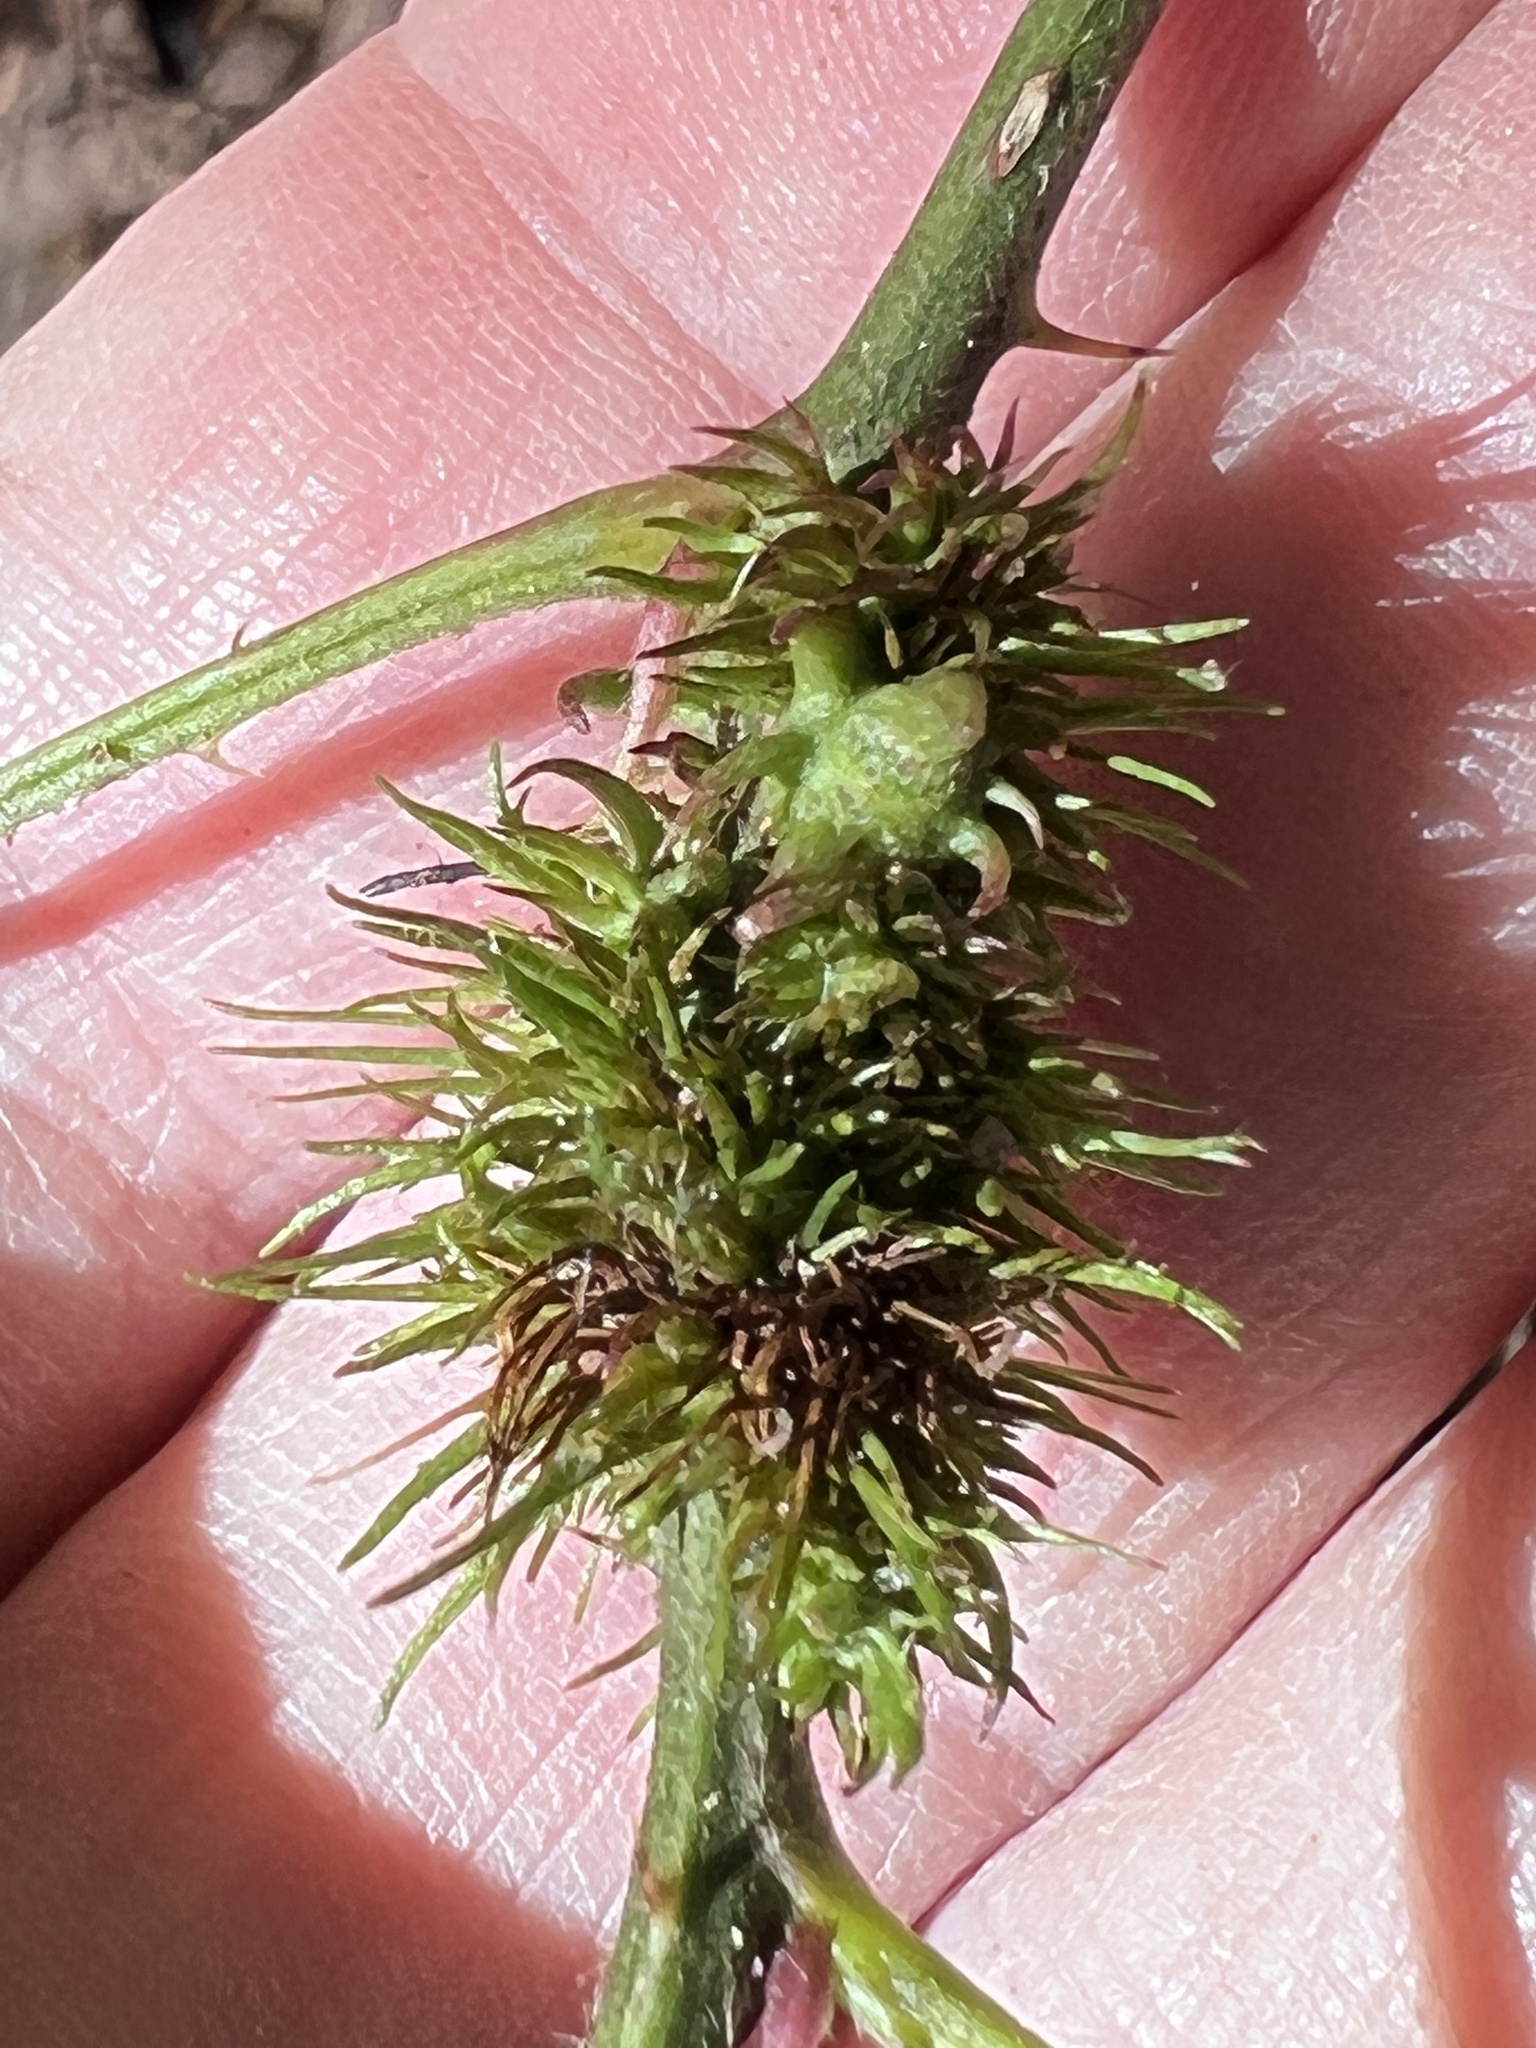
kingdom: Animalia
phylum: Arthropoda
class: Insecta
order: Hymenoptera
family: Cynipidae
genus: Diastrophus
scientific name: Diastrophus
